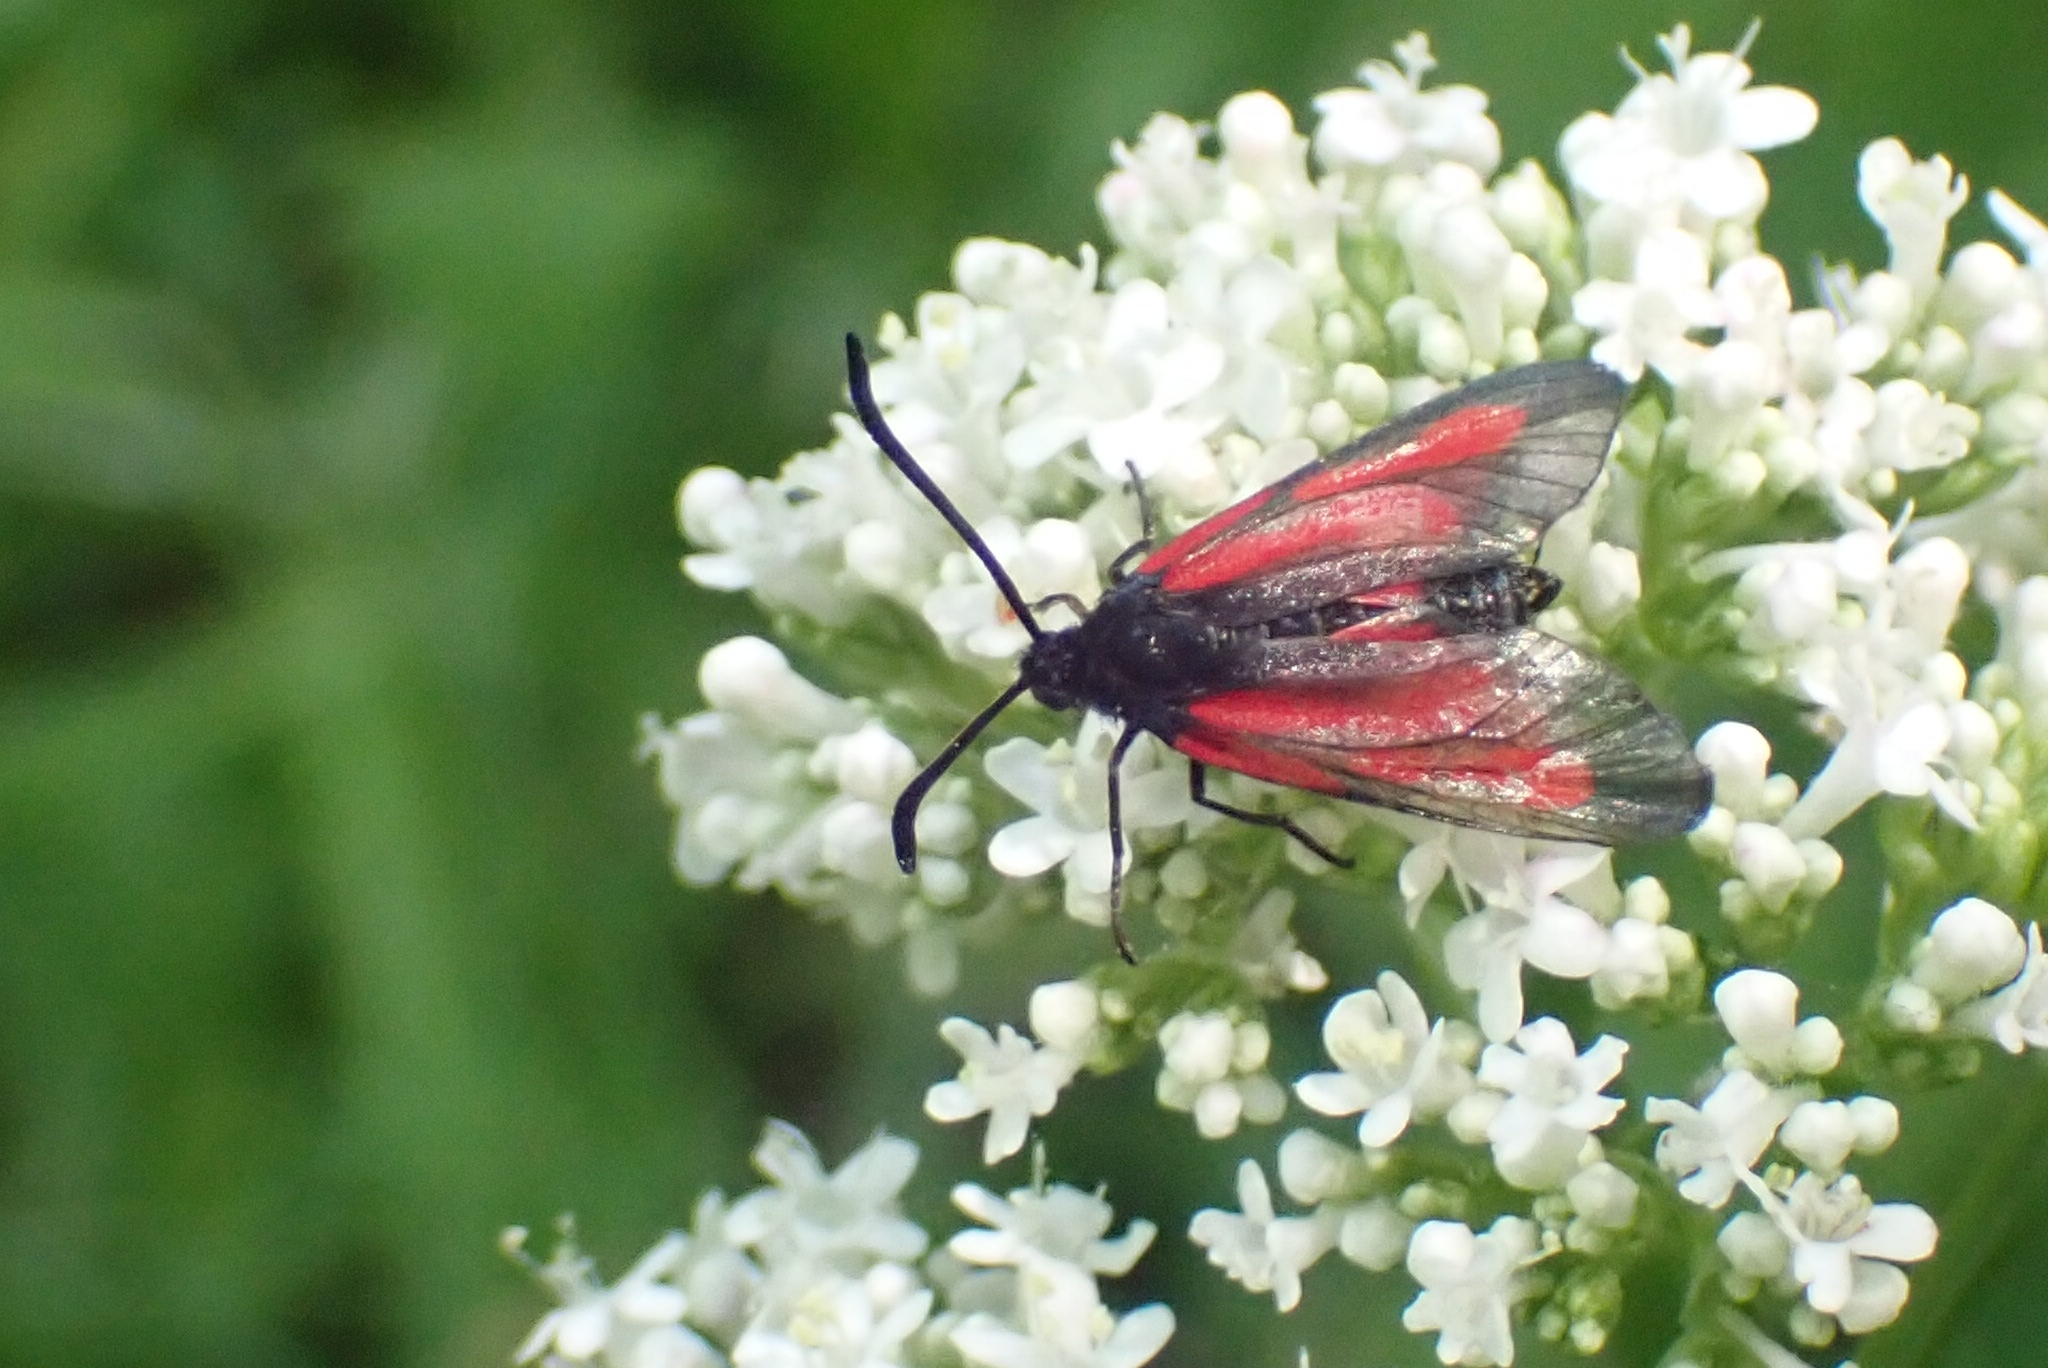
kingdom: Animalia
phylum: Arthropoda
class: Insecta
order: Lepidoptera
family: Zygaenidae
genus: Zygaena
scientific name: Zygaena osterodensis
